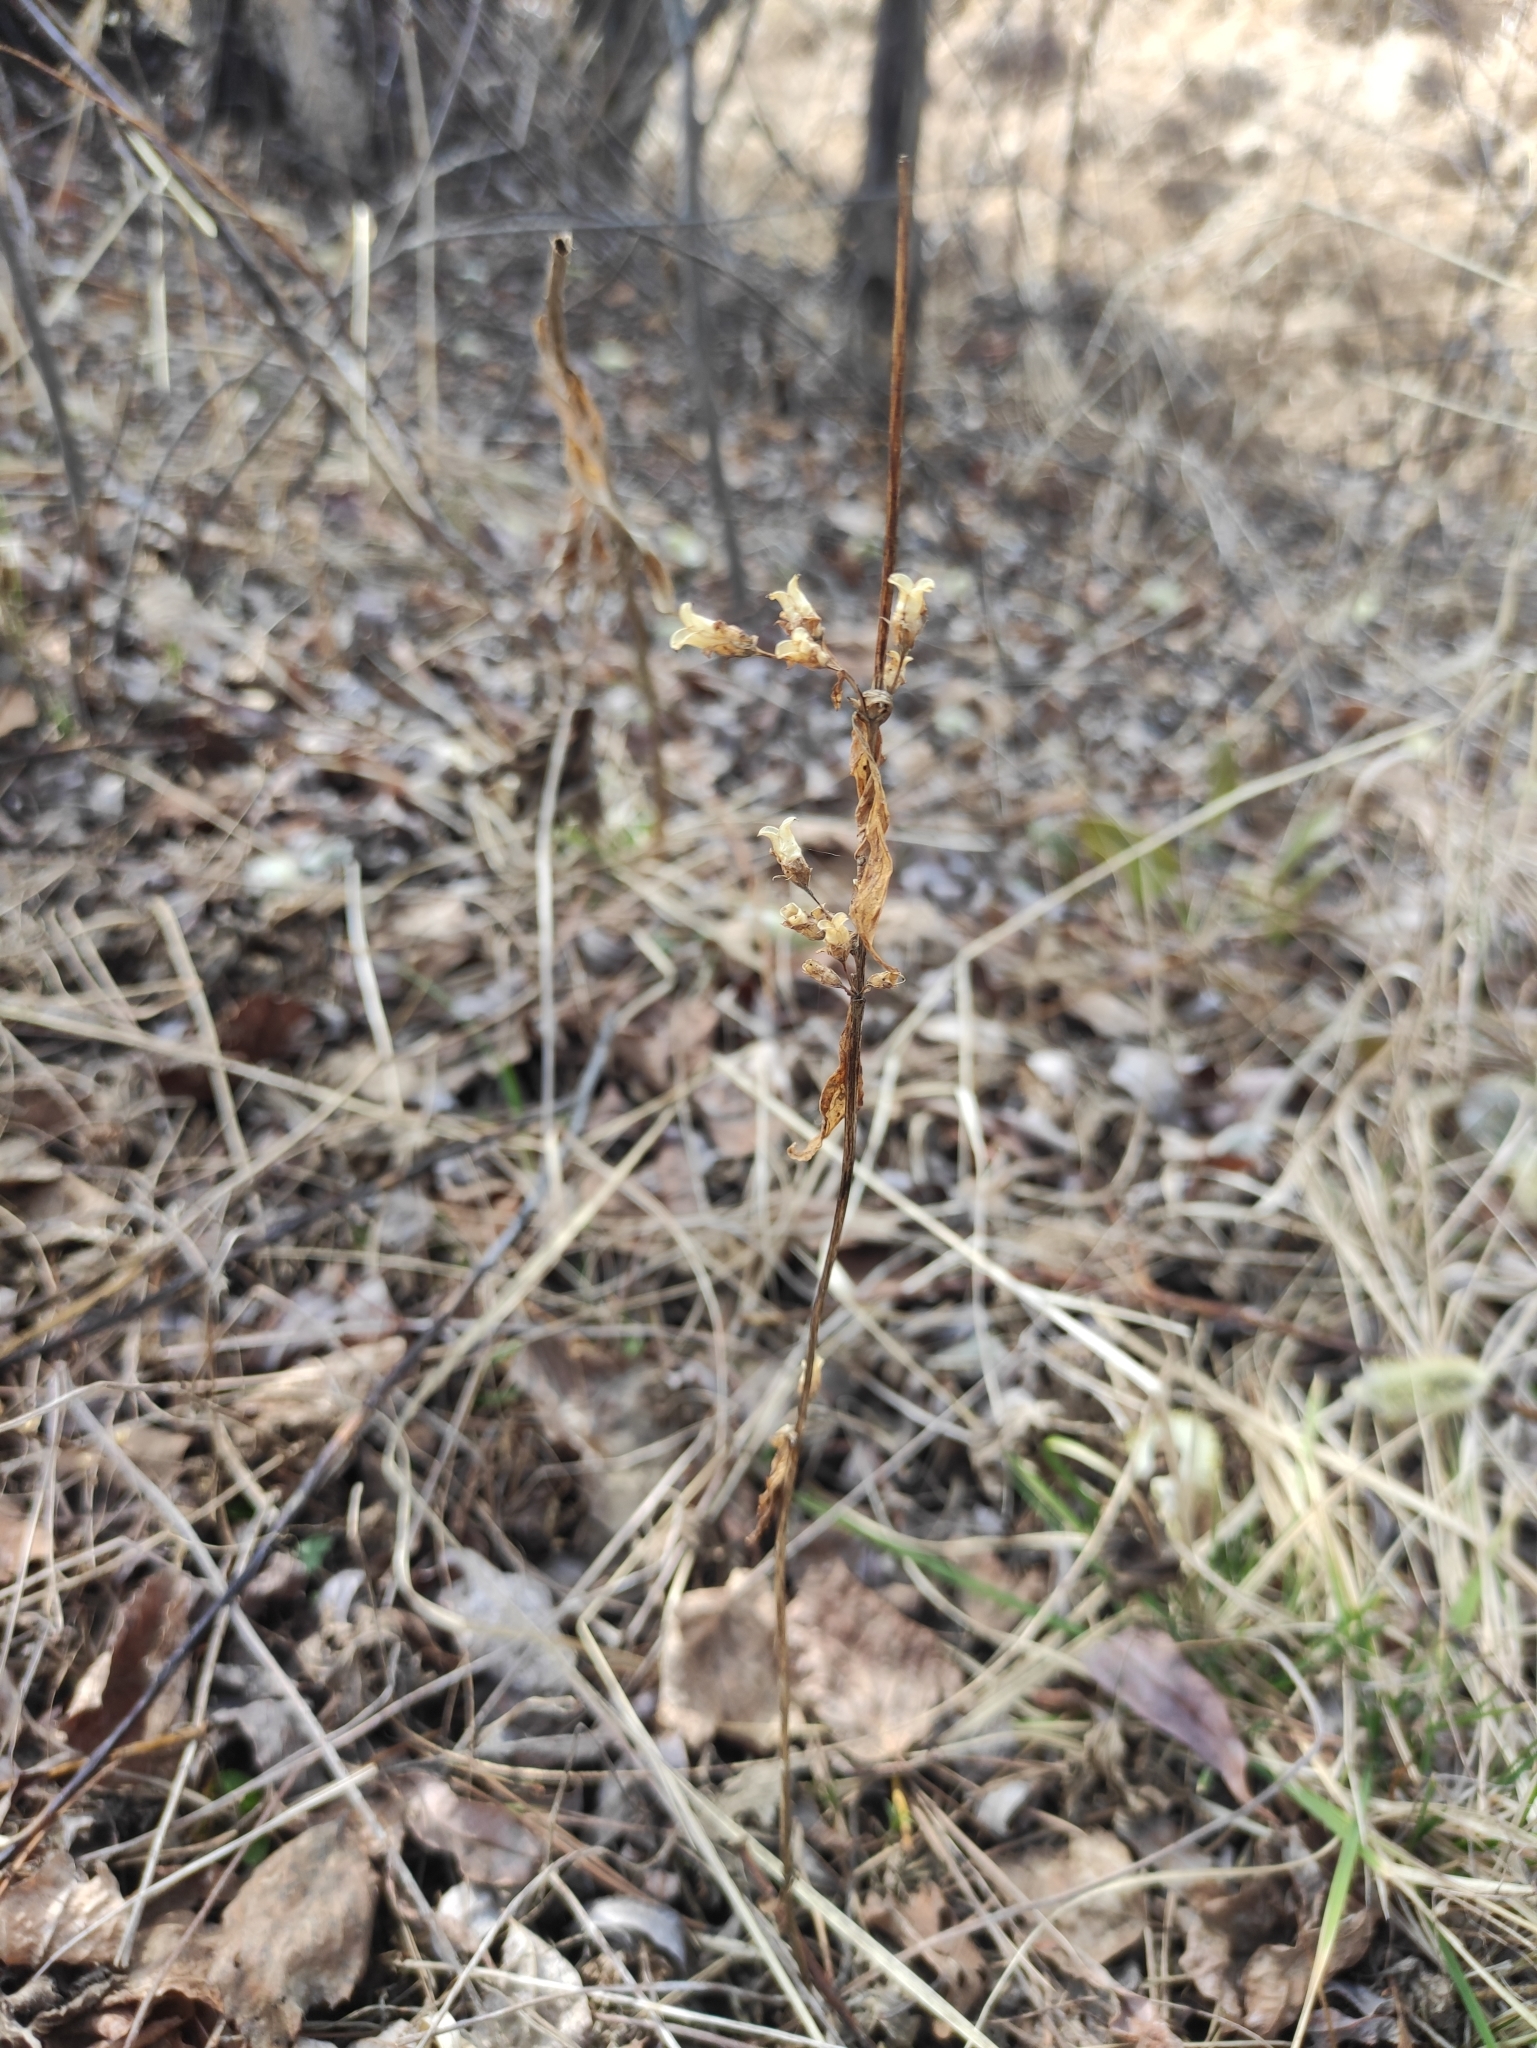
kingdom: Plantae
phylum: Tracheophyta
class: Magnoliopsida
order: Gentianales
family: Gentianaceae
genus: Halenia
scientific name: Halenia corniculata
